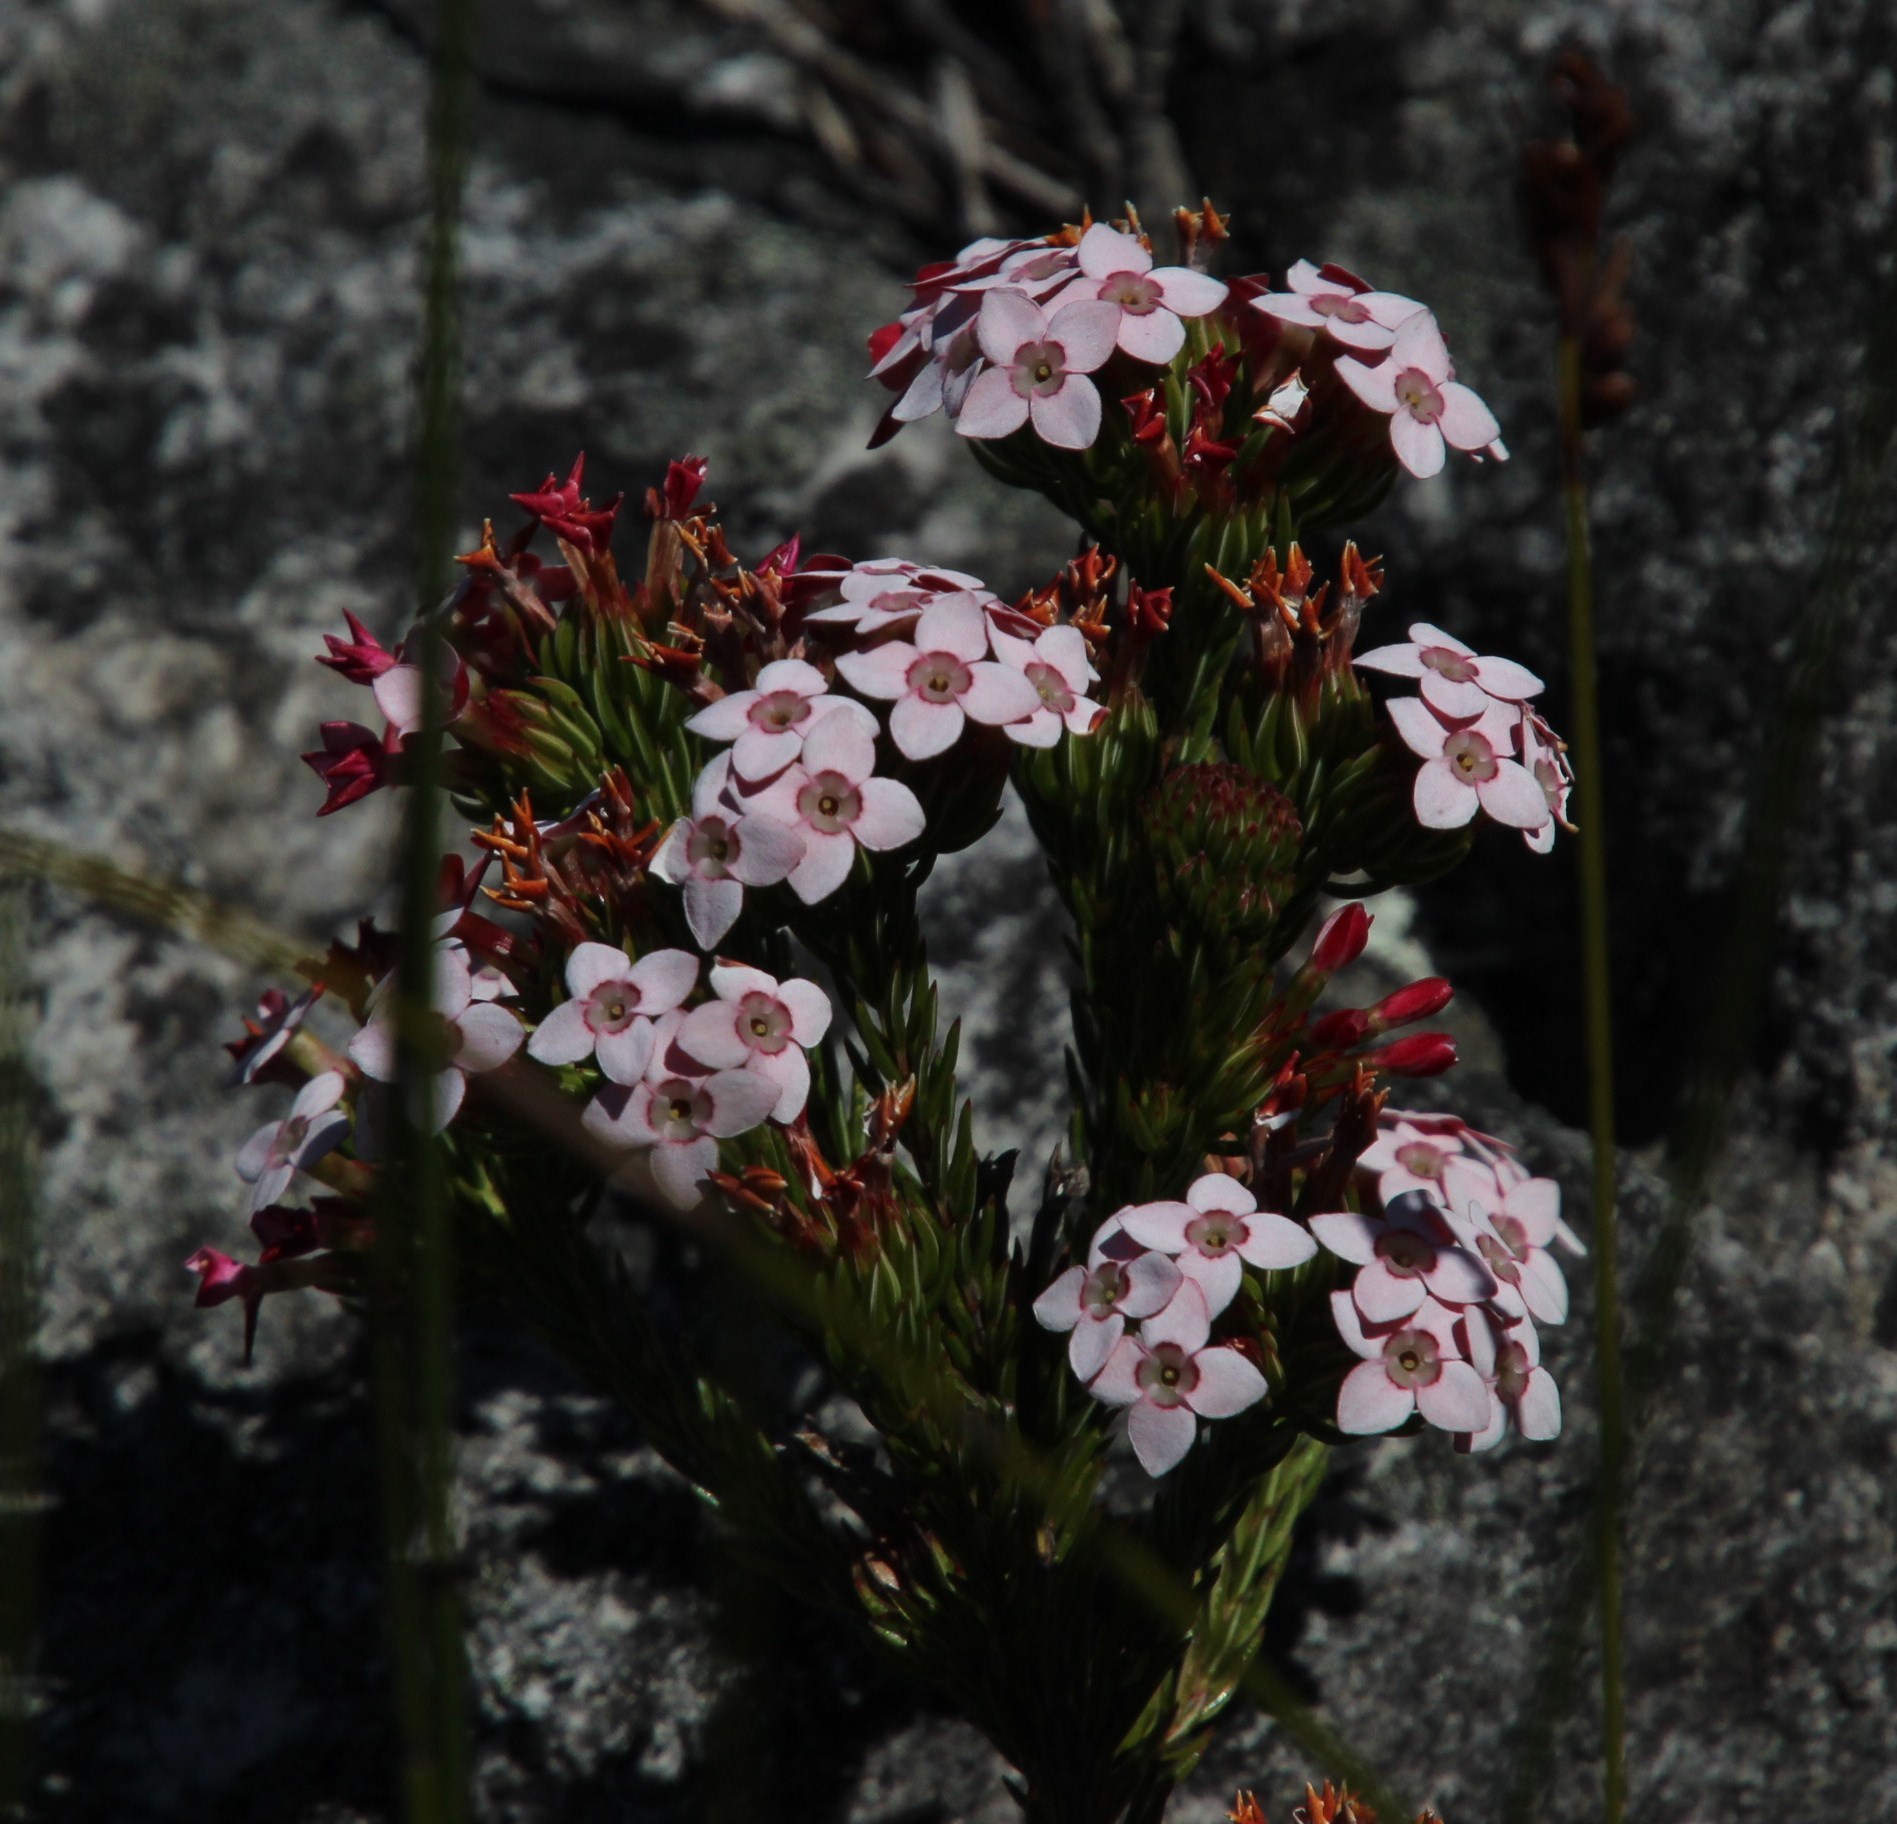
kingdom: Plantae
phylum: Tracheophyta
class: Magnoliopsida
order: Ericales
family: Ericaceae
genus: Erica
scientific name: Erica fastigiata
